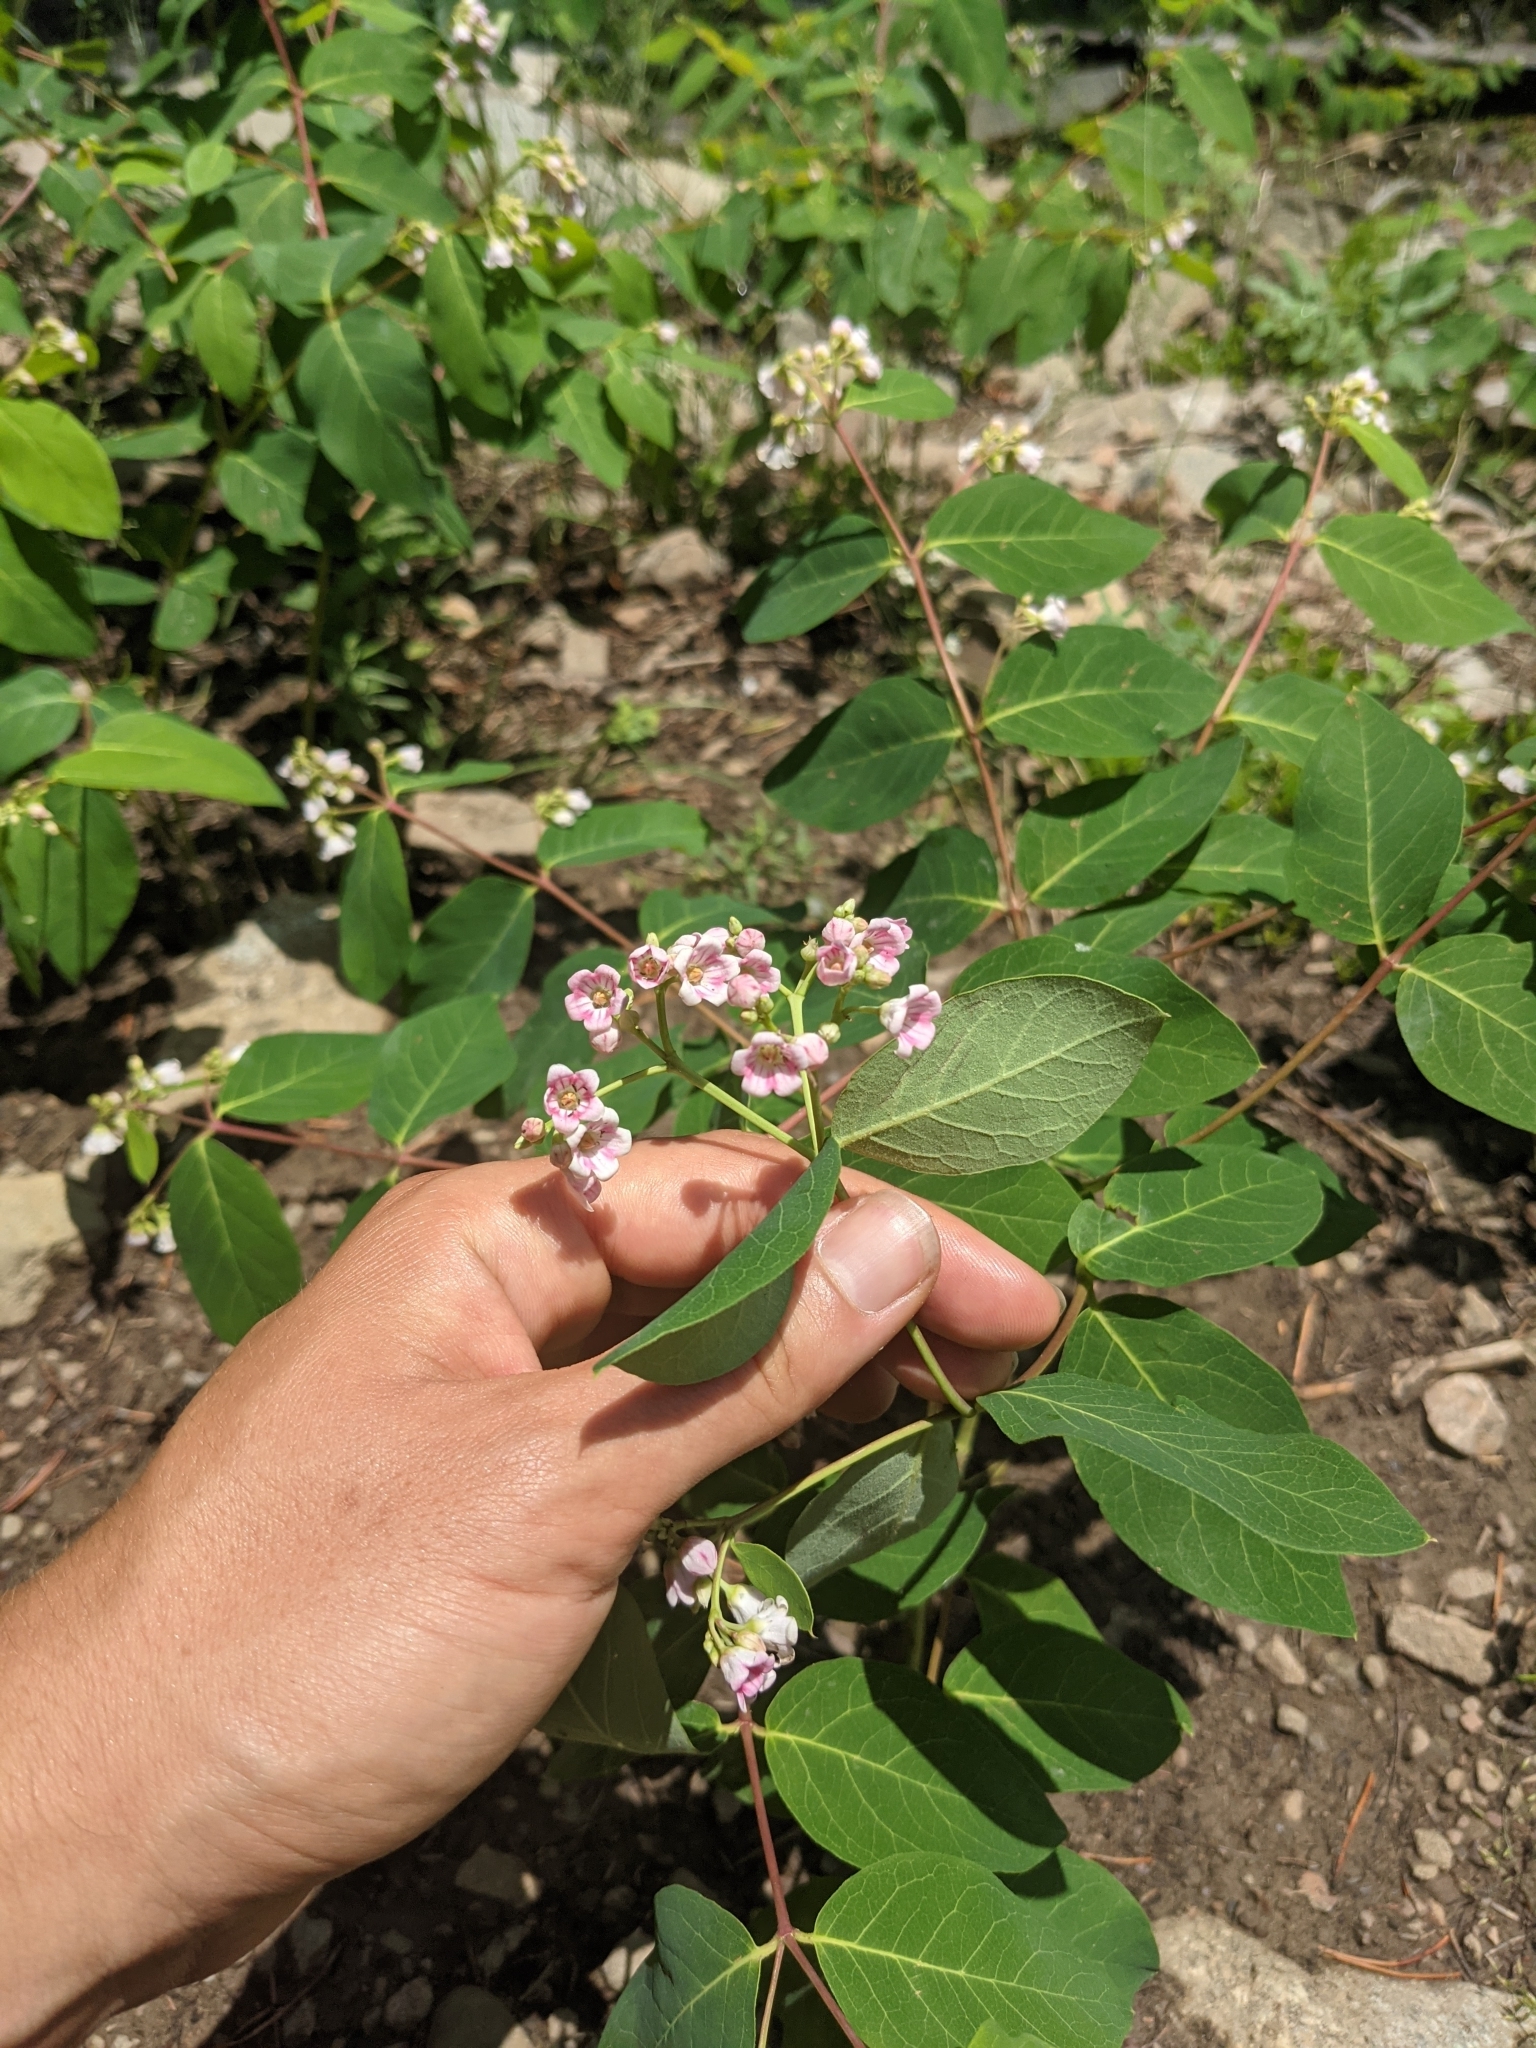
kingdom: Plantae
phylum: Tracheophyta
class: Magnoliopsida
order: Gentianales
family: Apocynaceae
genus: Apocynum
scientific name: Apocynum androsaemifolium
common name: Spreading dogbane
